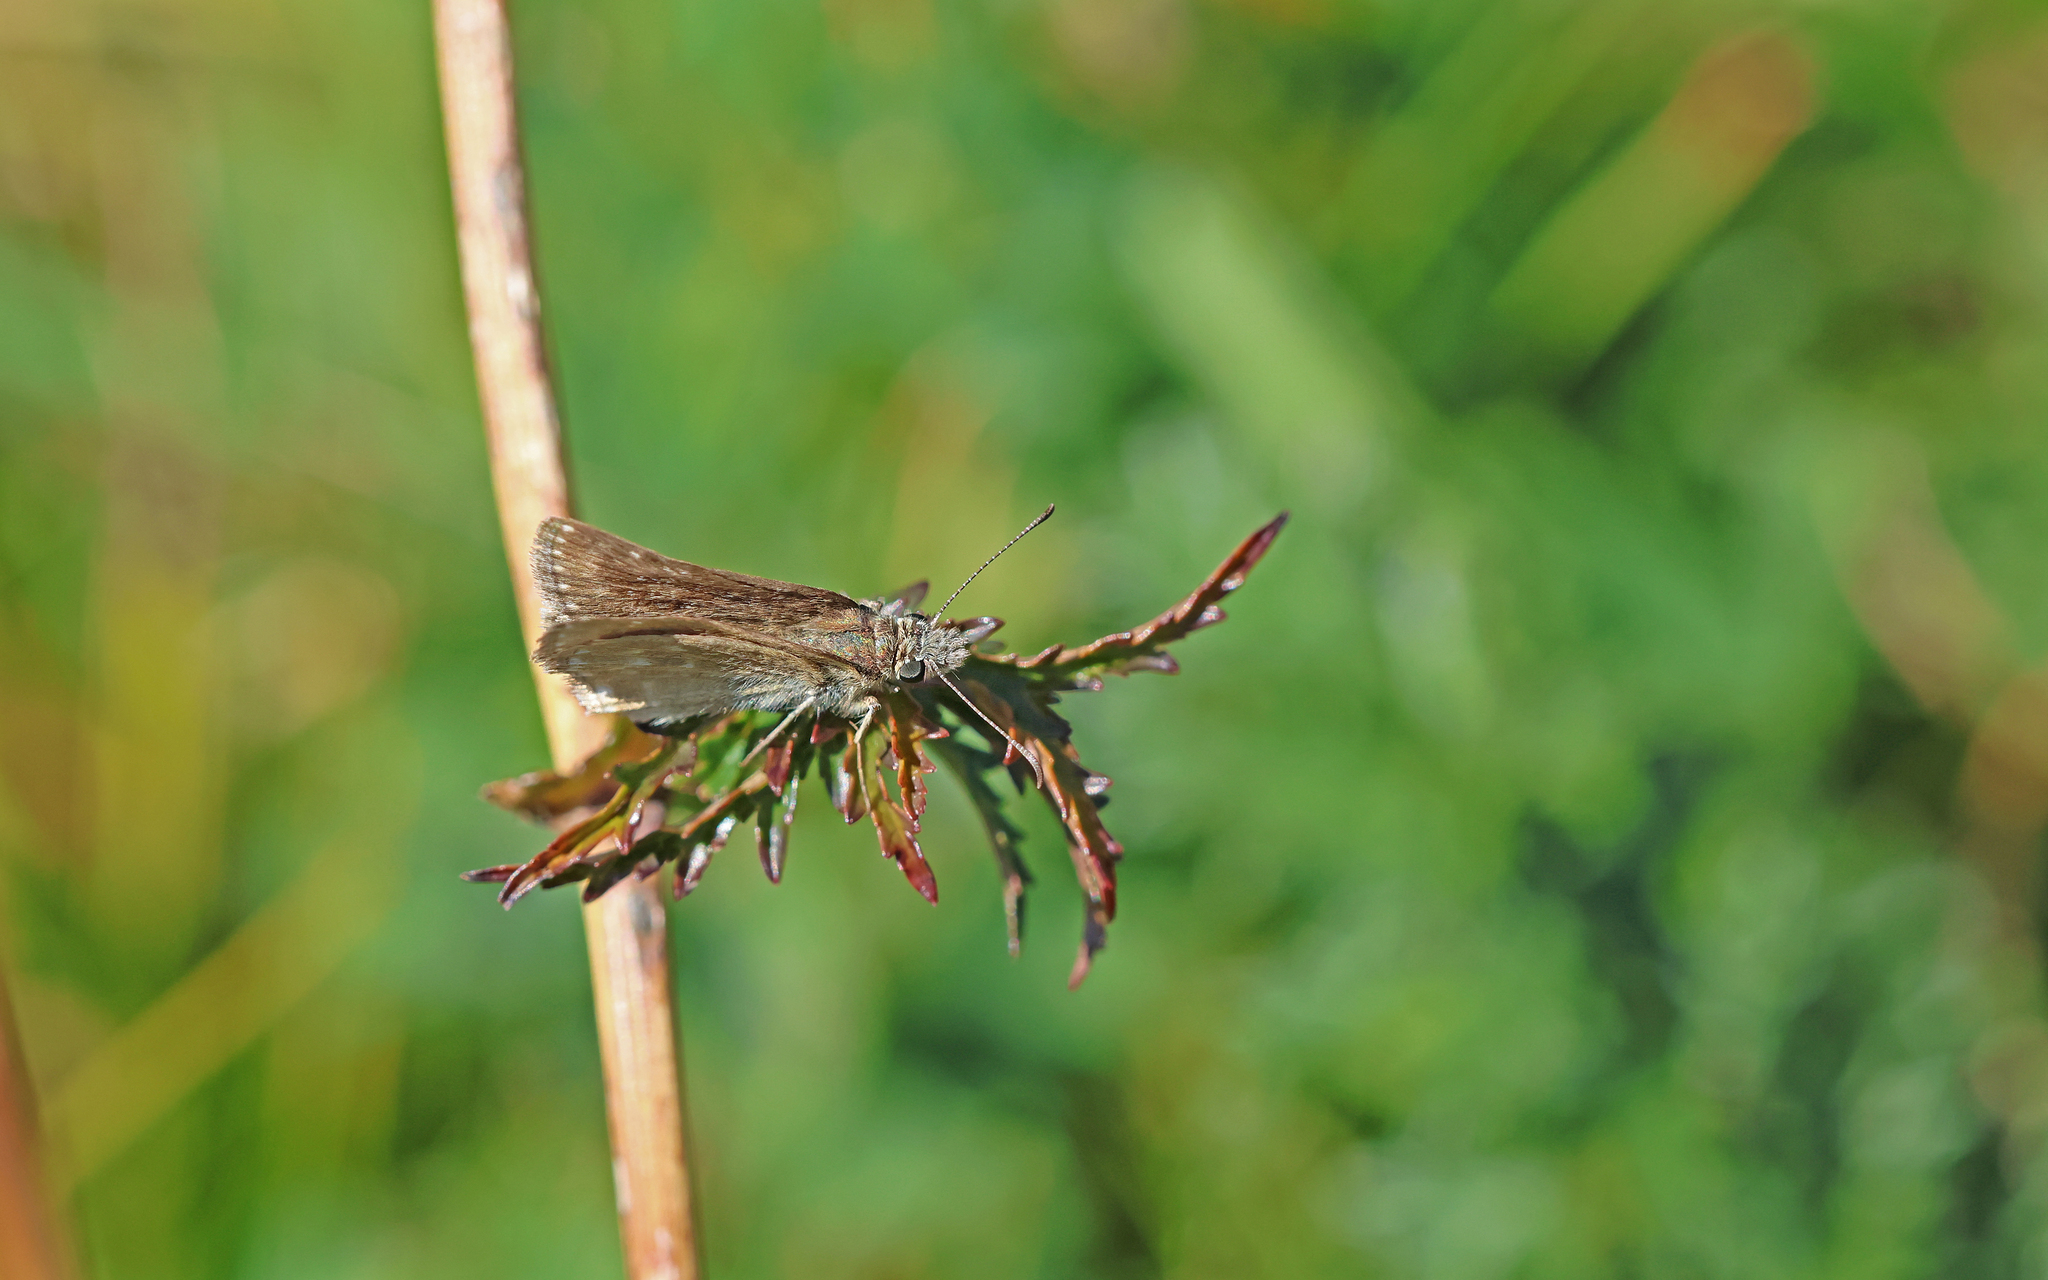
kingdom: Animalia
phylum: Arthropoda
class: Insecta
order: Lepidoptera
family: Hesperiidae
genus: Erynnis
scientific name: Erynnis tages
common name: Dingy skipper
